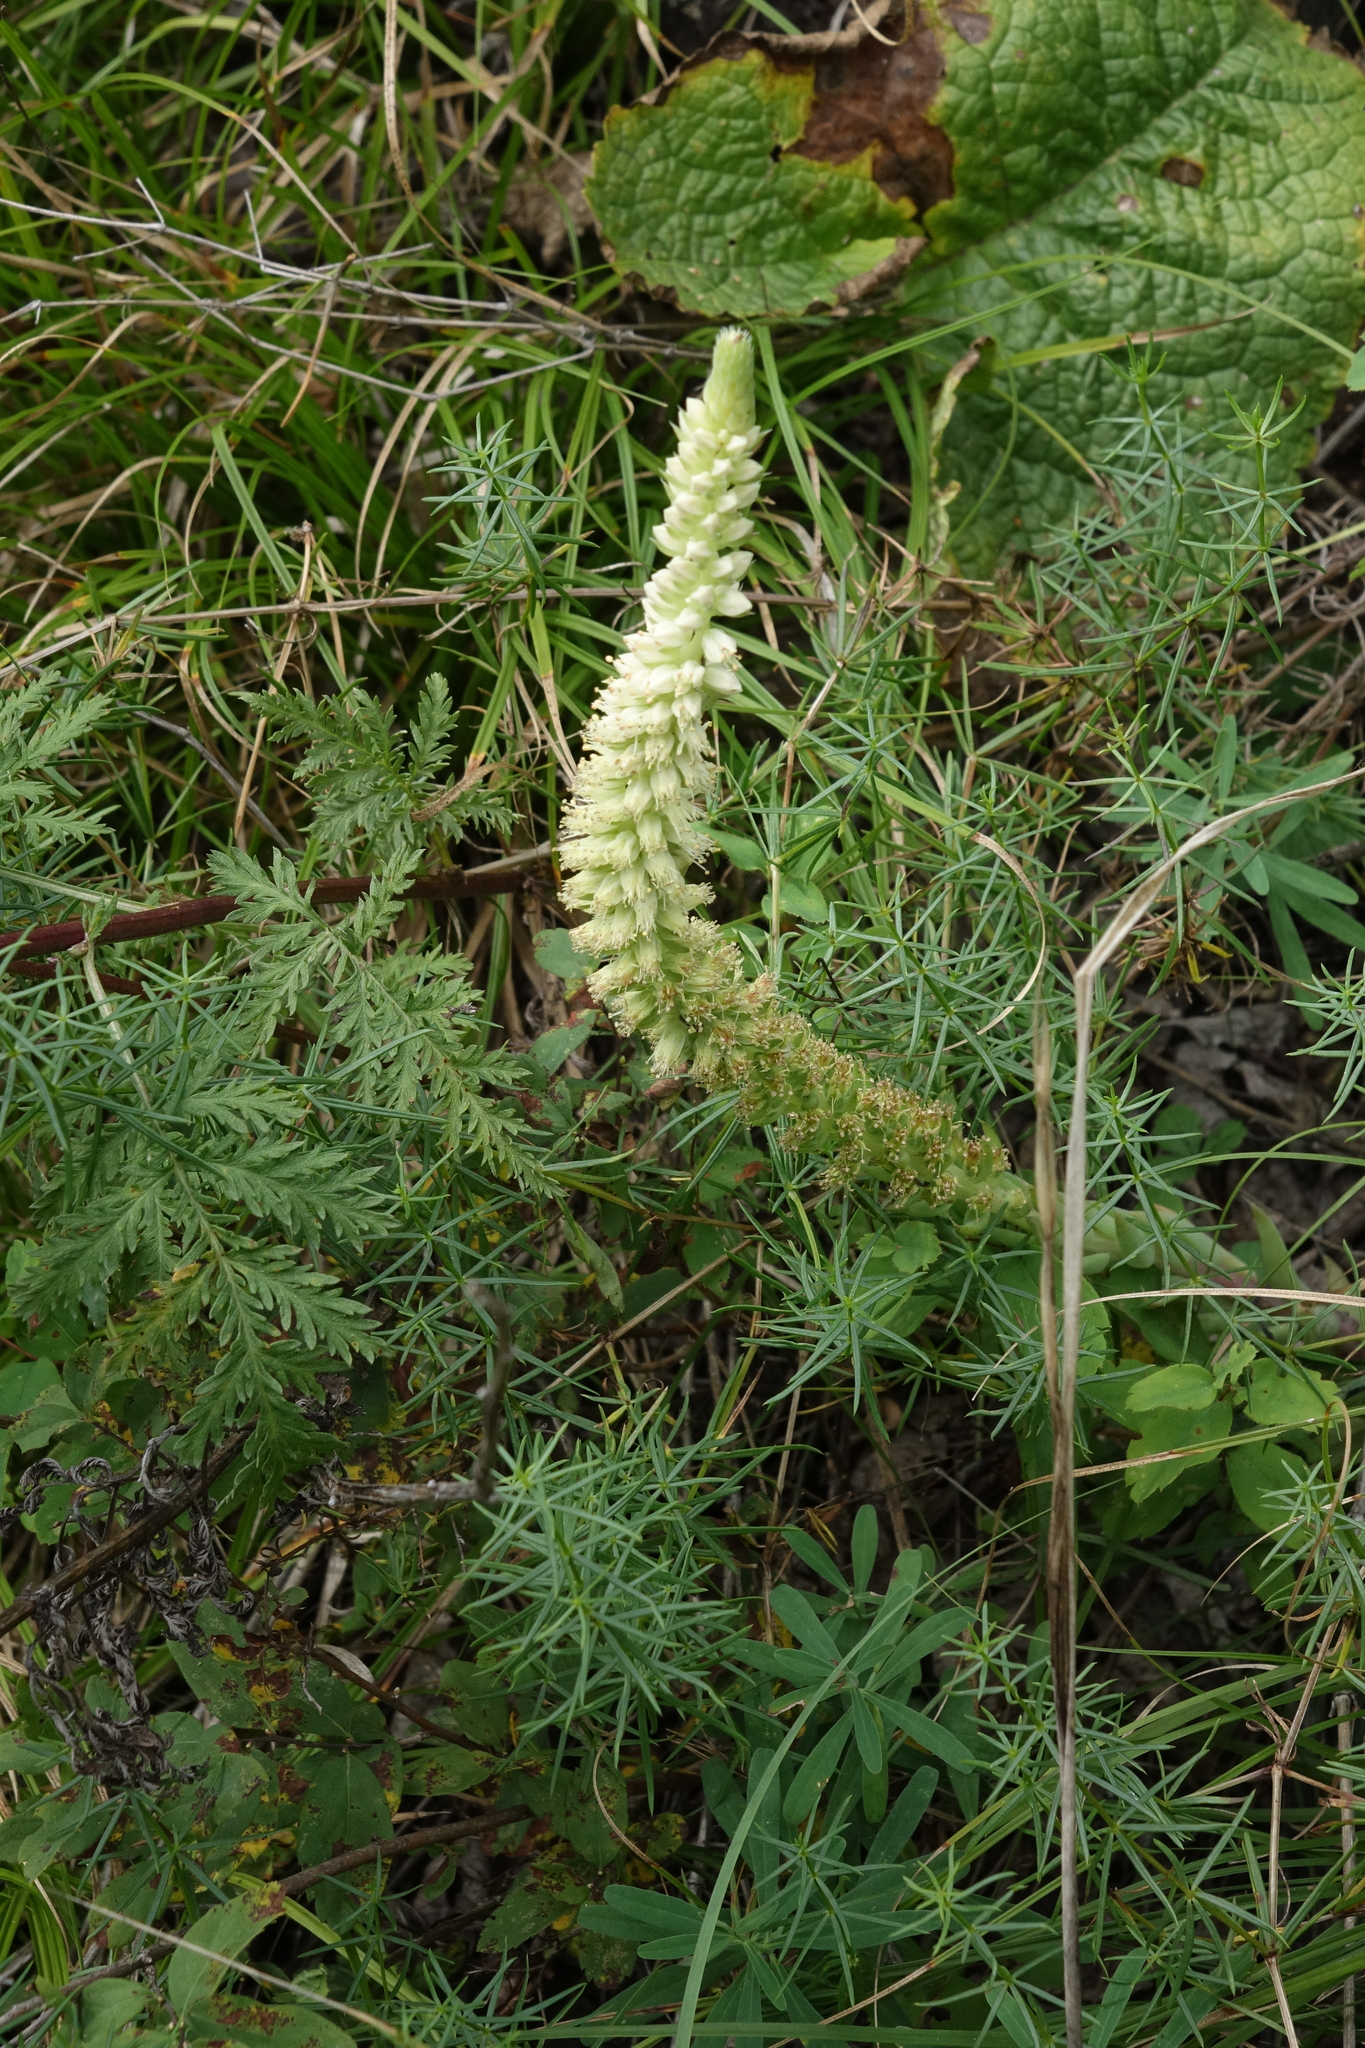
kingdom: Plantae
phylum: Tracheophyta
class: Magnoliopsida
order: Saxifragales
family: Crassulaceae
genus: Orostachys
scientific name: Orostachys spinosa
